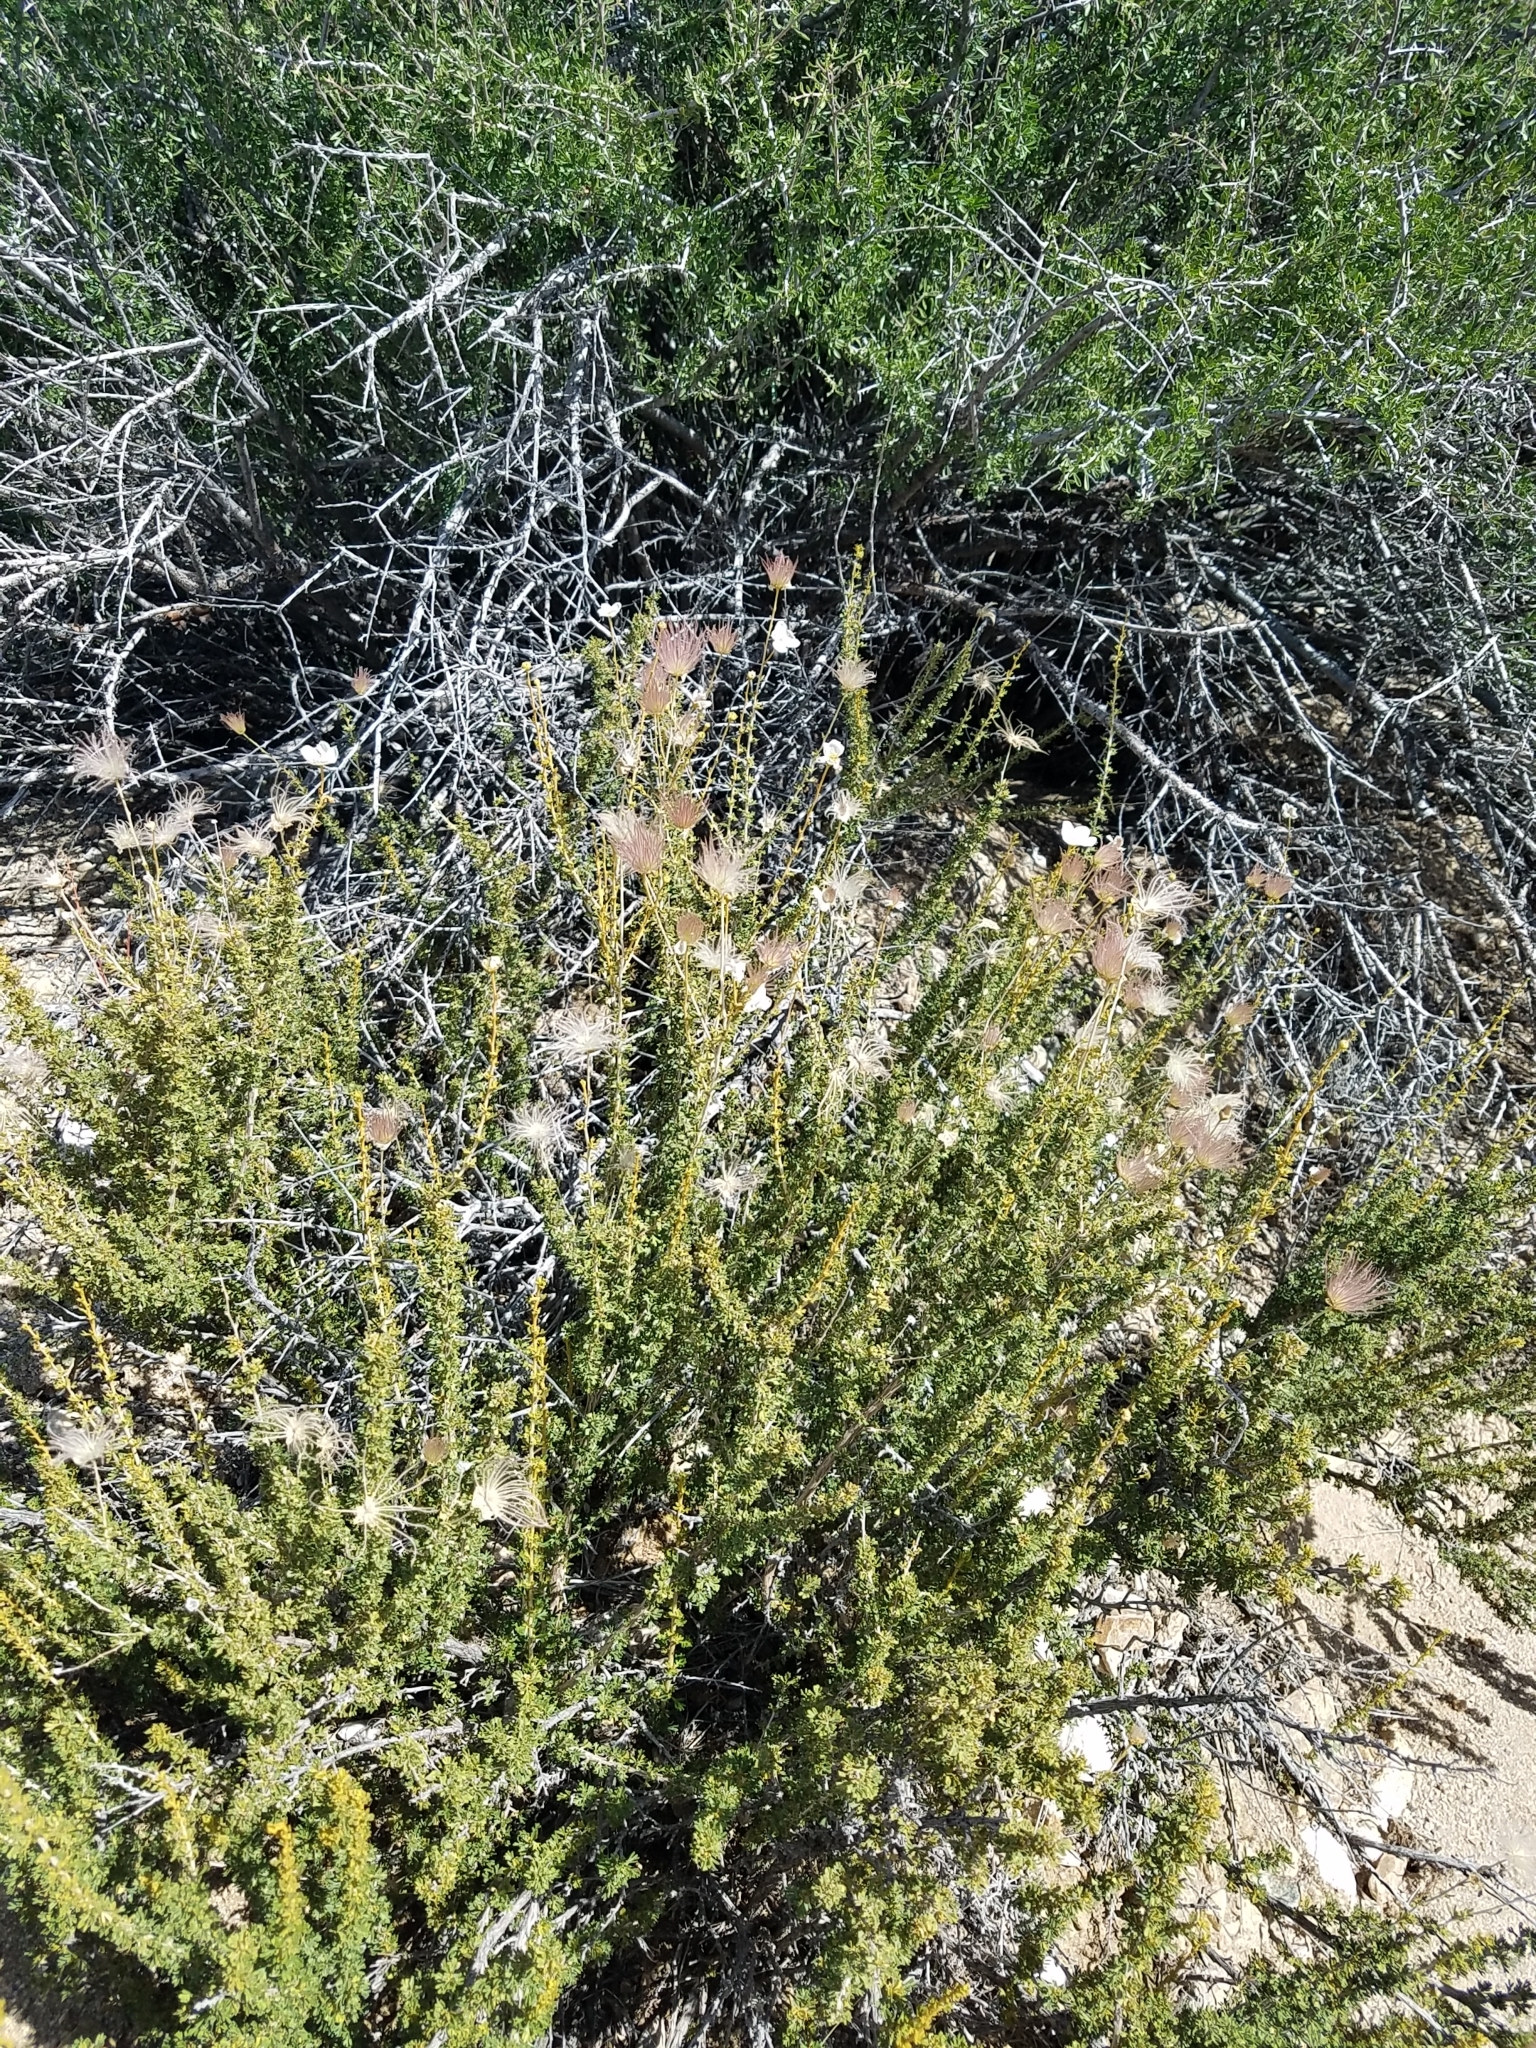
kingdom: Plantae
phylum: Tracheophyta
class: Magnoliopsida
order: Rosales
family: Rosaceae
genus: Fallugia
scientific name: Fallugia paradoxa
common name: Apache-plume
